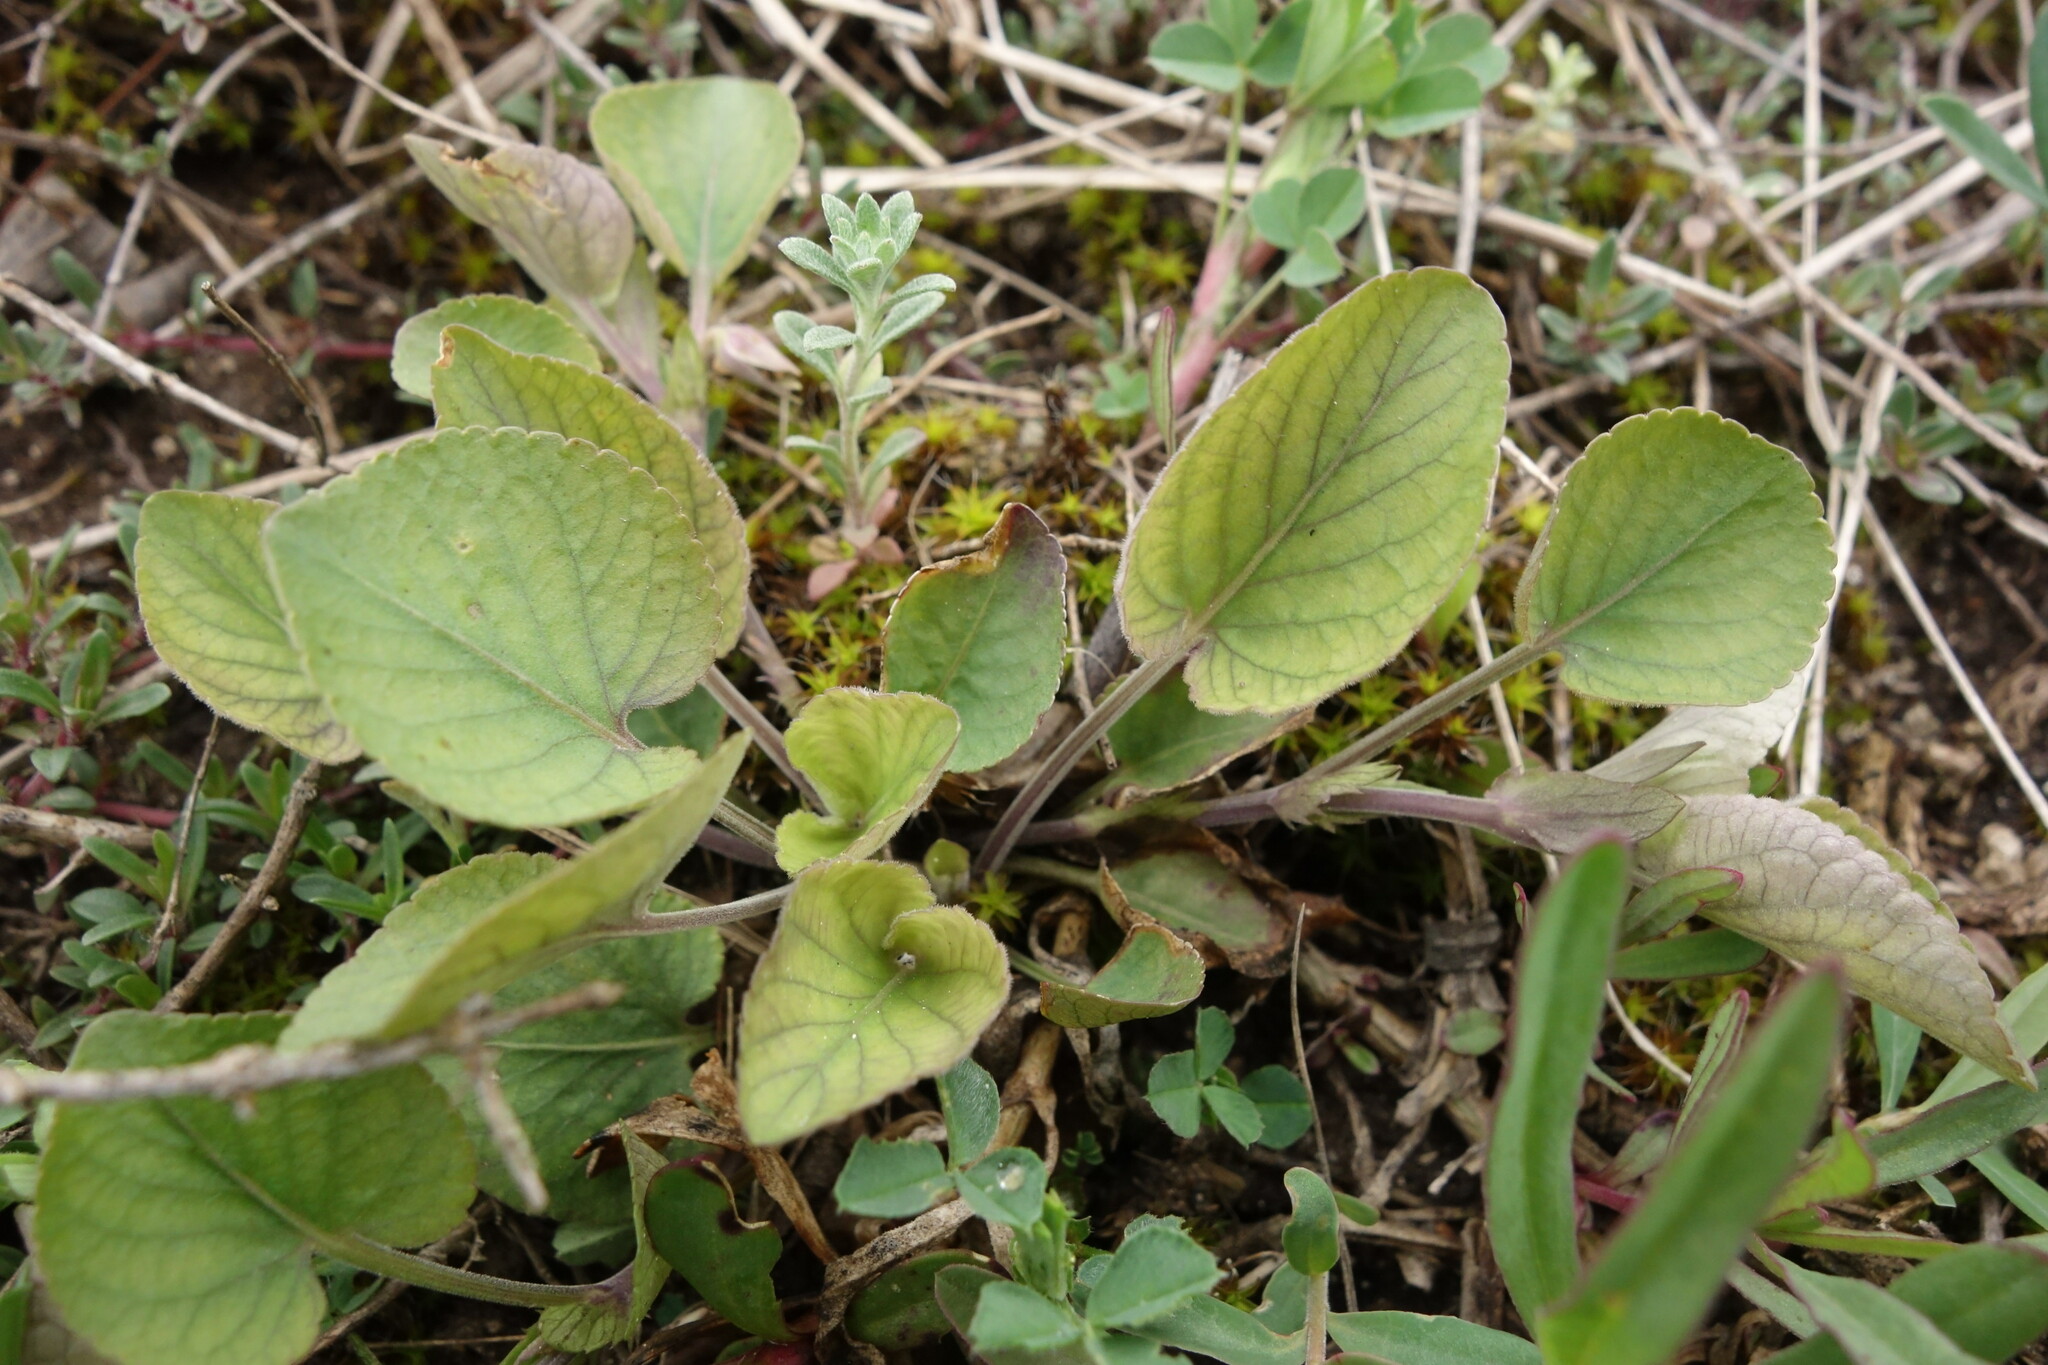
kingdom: Plantae
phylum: Tracheophyta
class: Magnoliopsida
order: Malpighiales
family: Violaceae
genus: Viola
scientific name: Viola rupestris
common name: Teesdale violet
